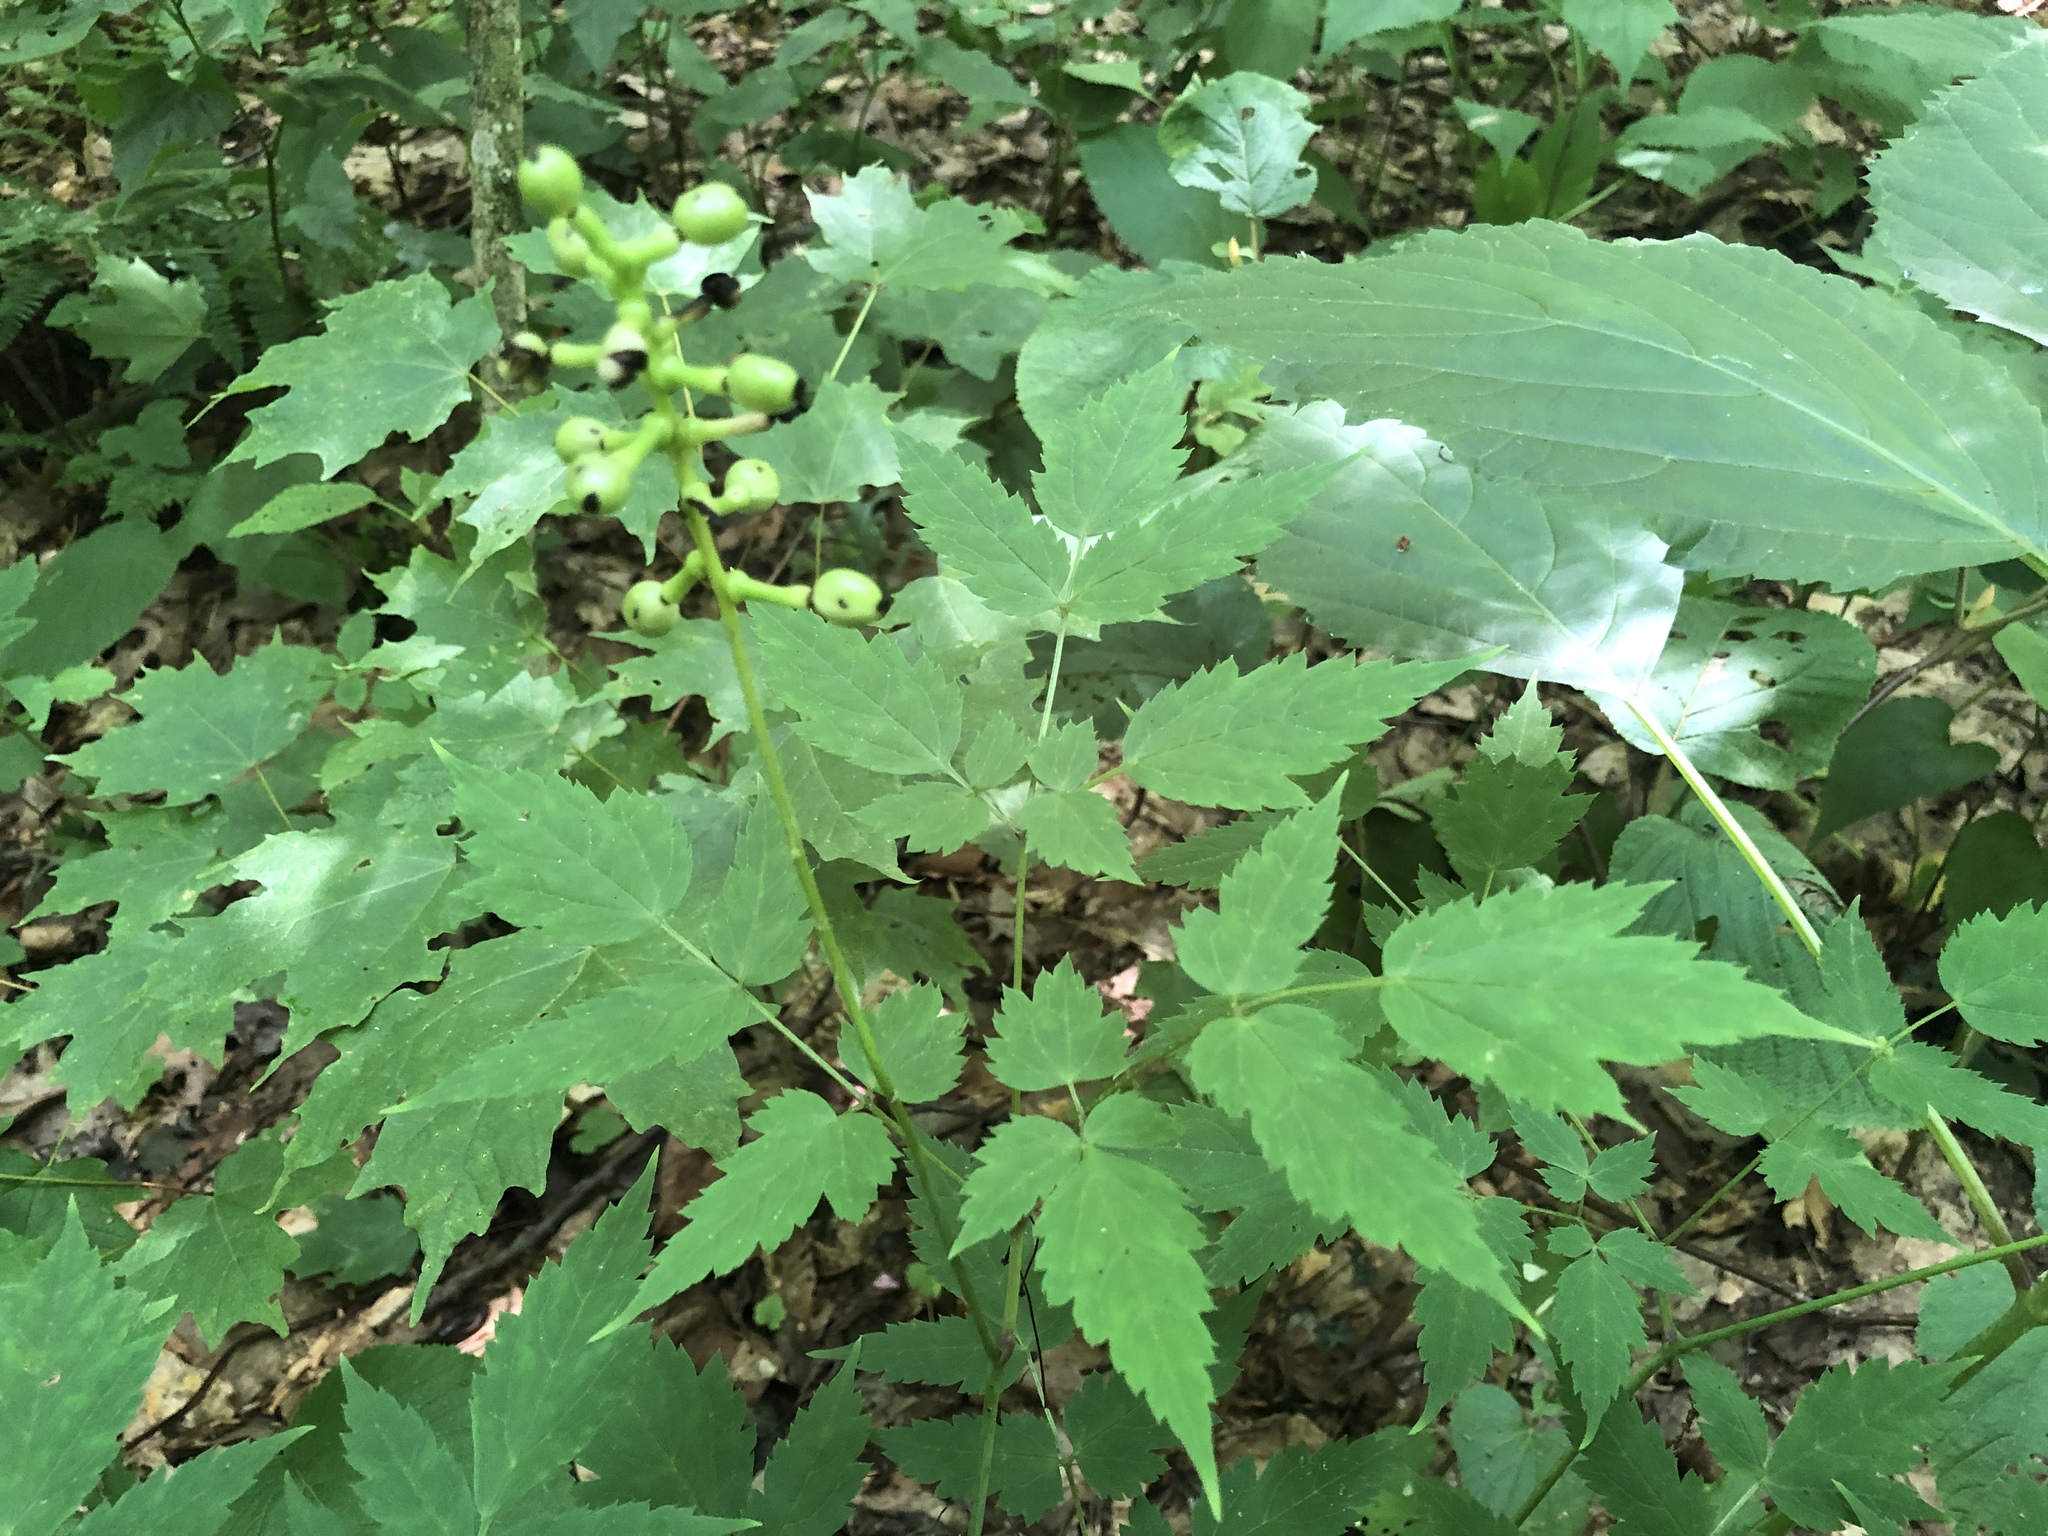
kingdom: Plantae
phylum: Tracheophyta
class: Magnoliopsida
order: Ranunculales
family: Ranunculaceae
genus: Actaea
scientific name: Actaea pachypoda
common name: Doll's-eyes
